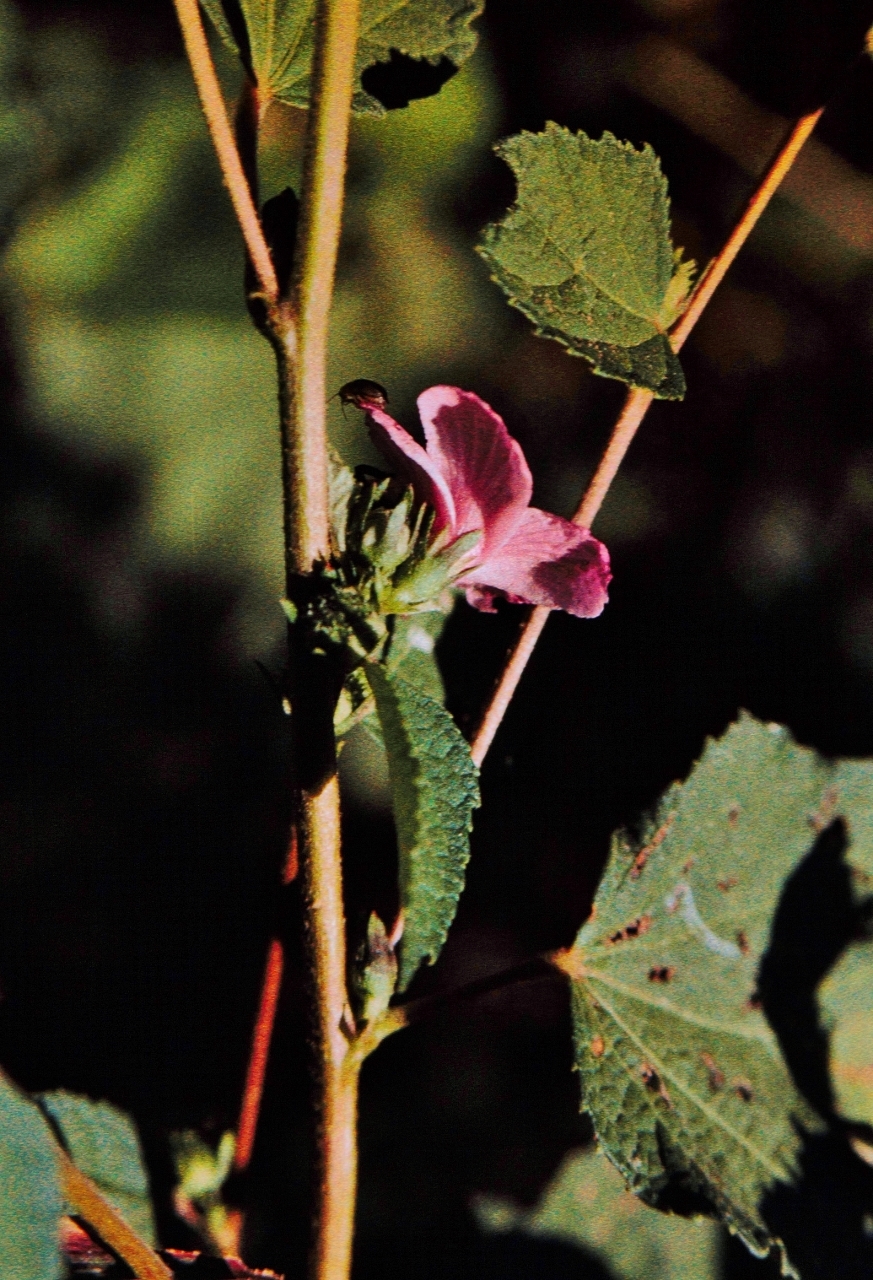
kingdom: Plantae
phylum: Tracheophyta
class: Magnoliopsida
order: Malvales
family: Malvaceae
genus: Urena
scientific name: Urena lobata
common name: Caesarweed
